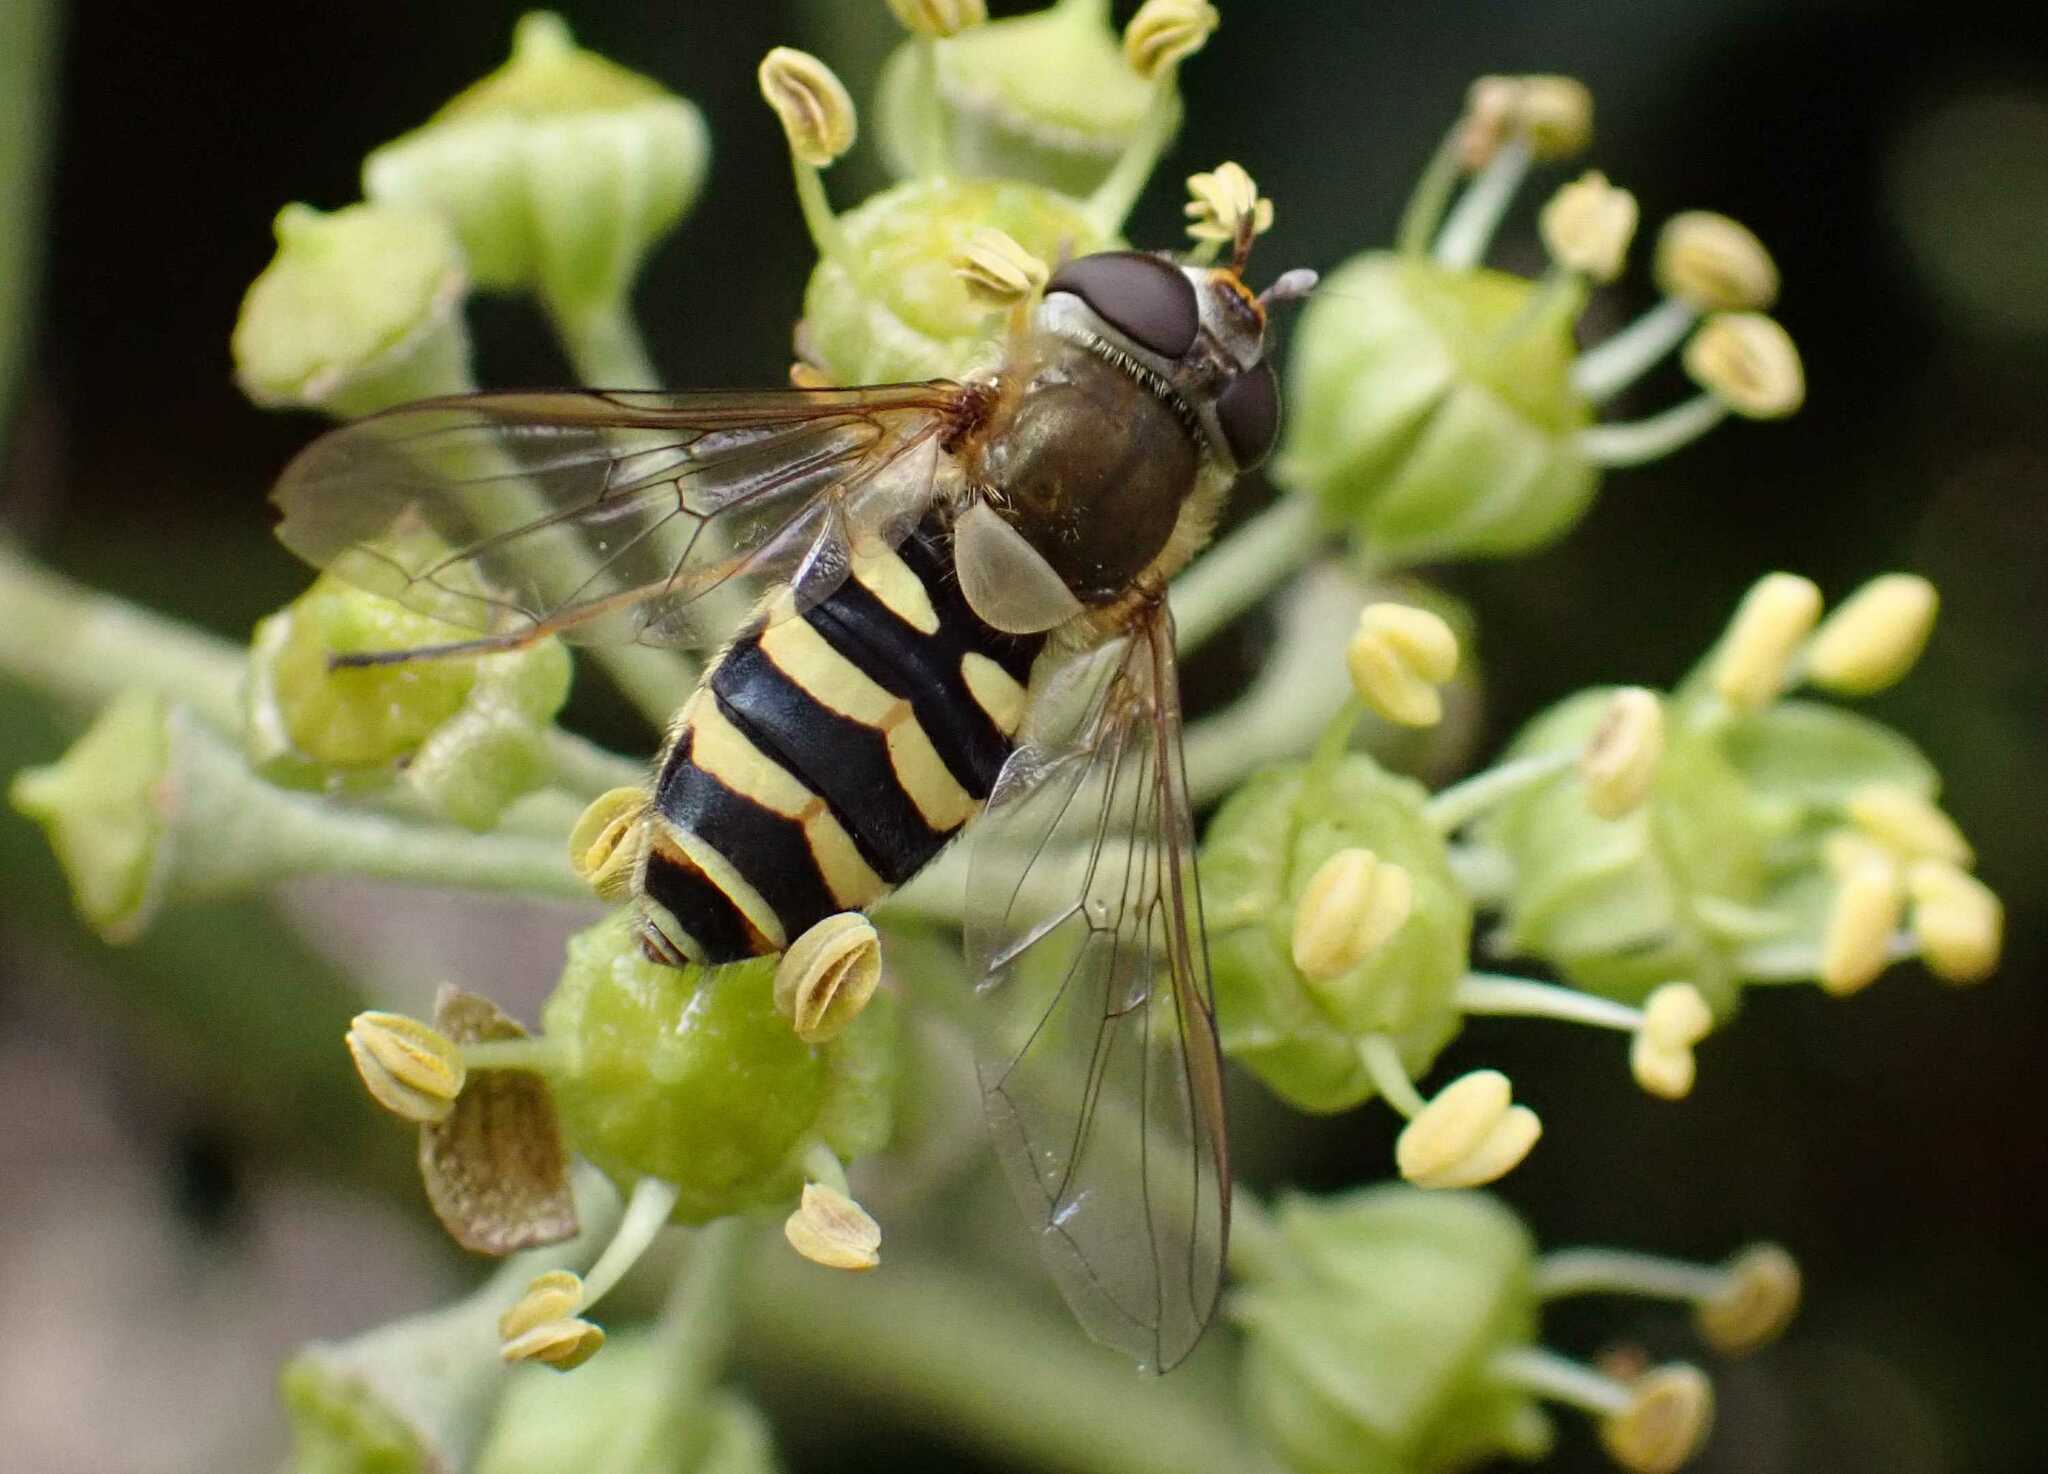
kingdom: Animalia
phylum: Arthropoda
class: Insecta
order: Diptera
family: Syrphidae
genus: Syrphus
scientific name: Syrphus
